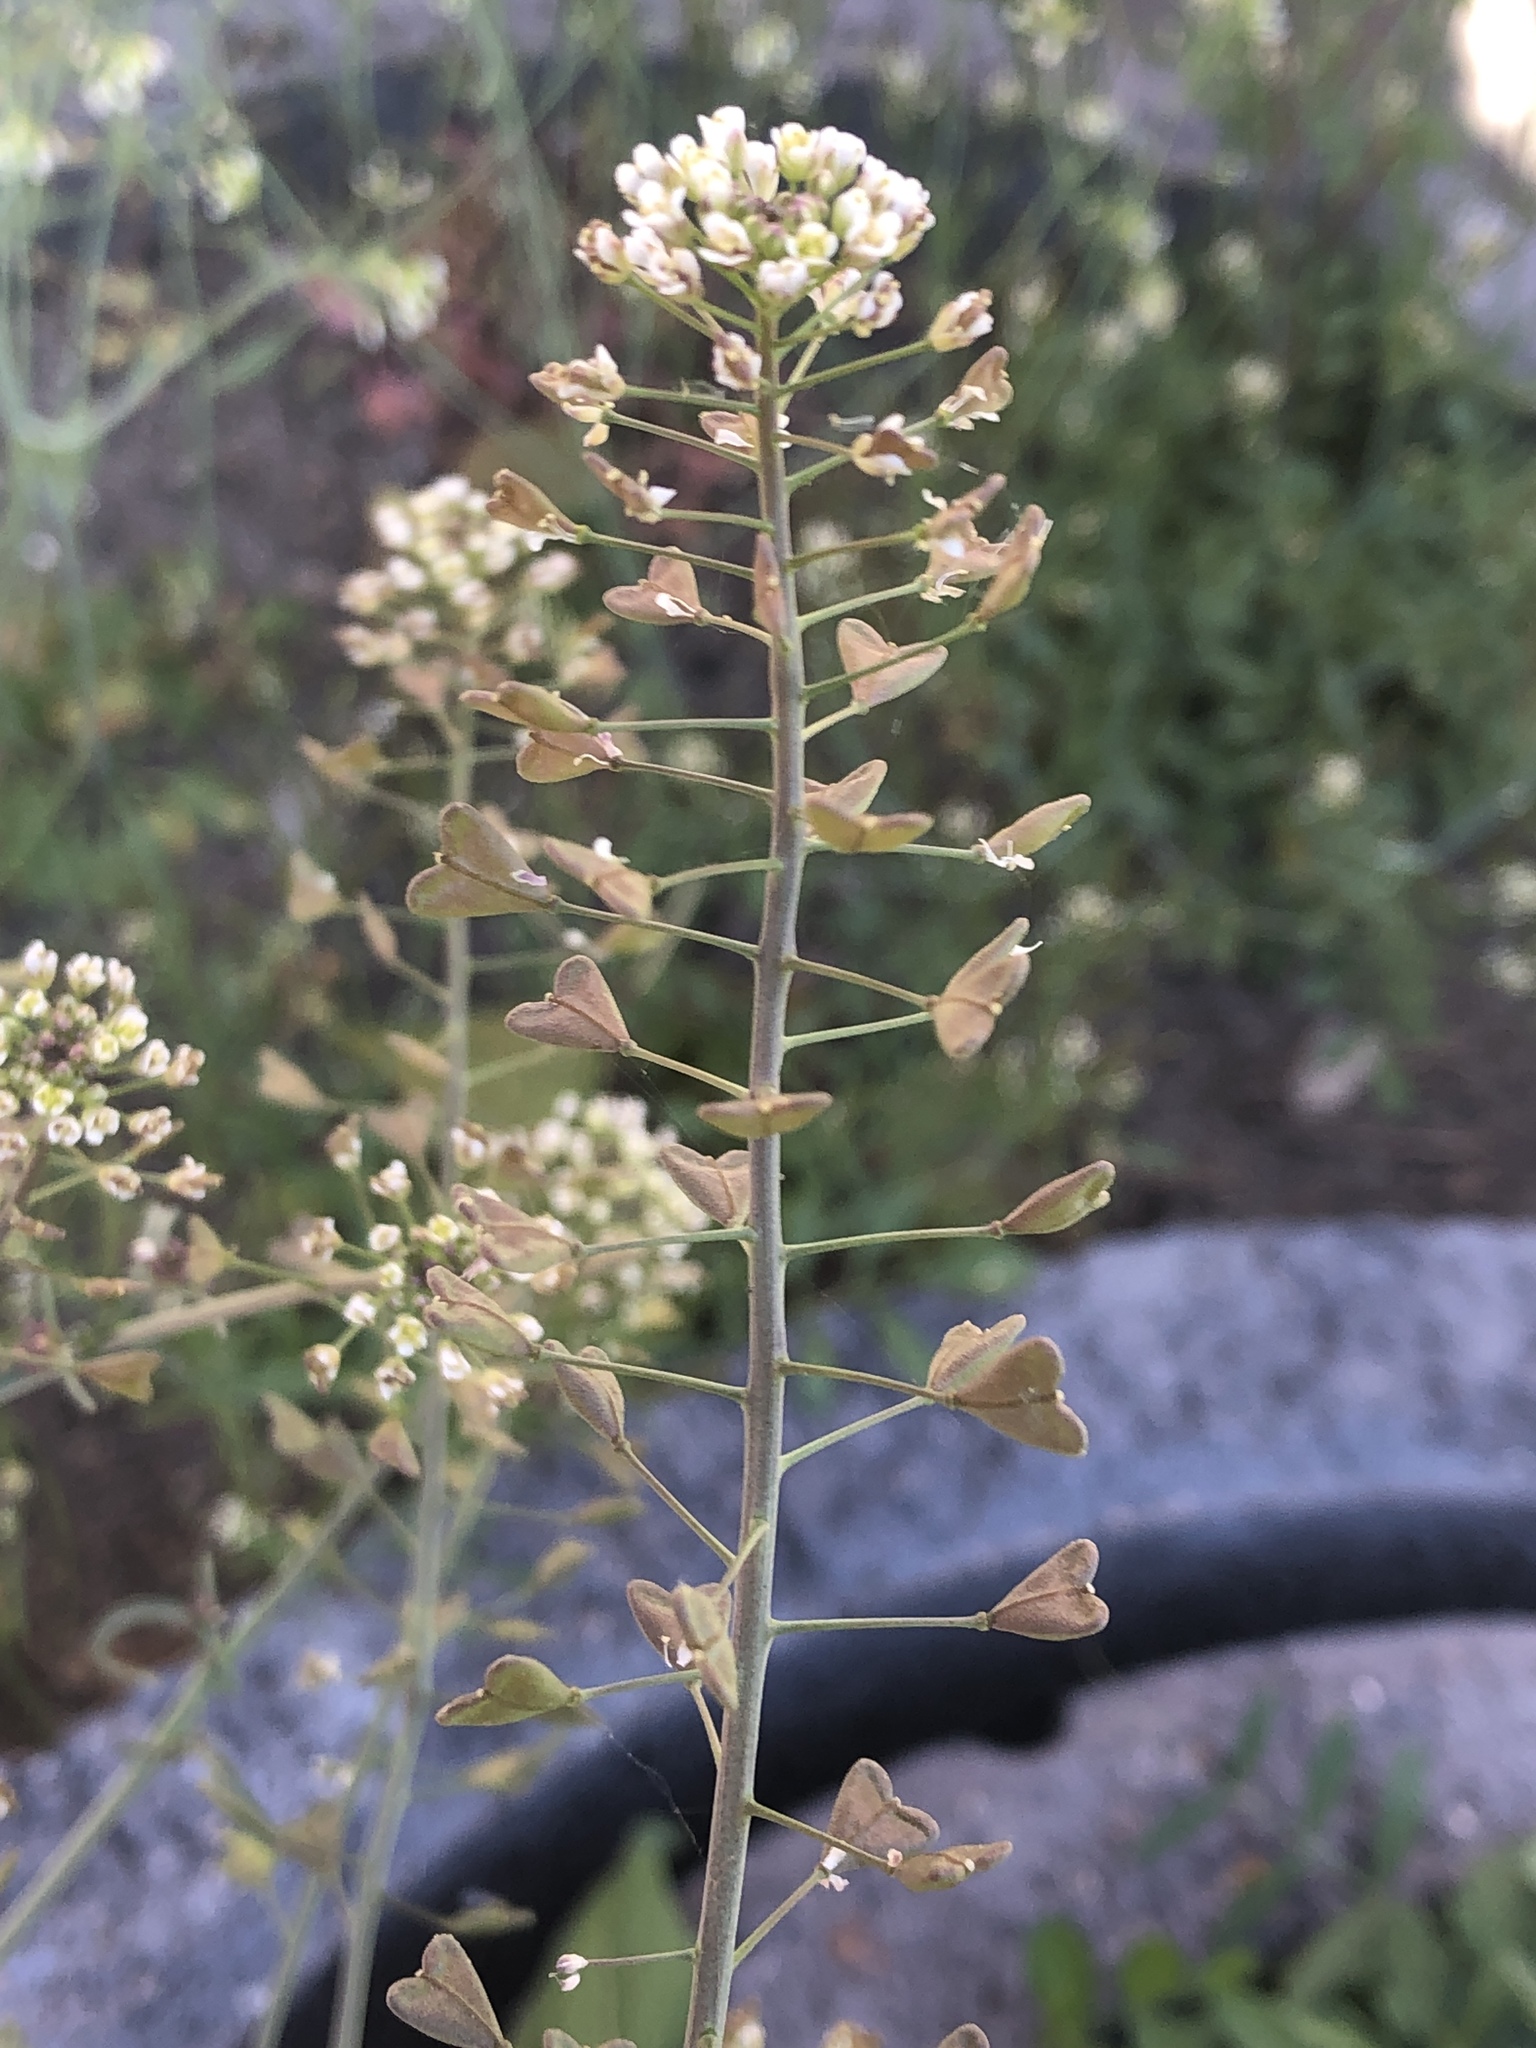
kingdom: Plantae
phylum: Tracheophyta
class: Magnoliopsida
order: Brassicales
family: Brassicaceae
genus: Capsella
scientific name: Capsella bursa-pastoris
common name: Shepherd's purse
